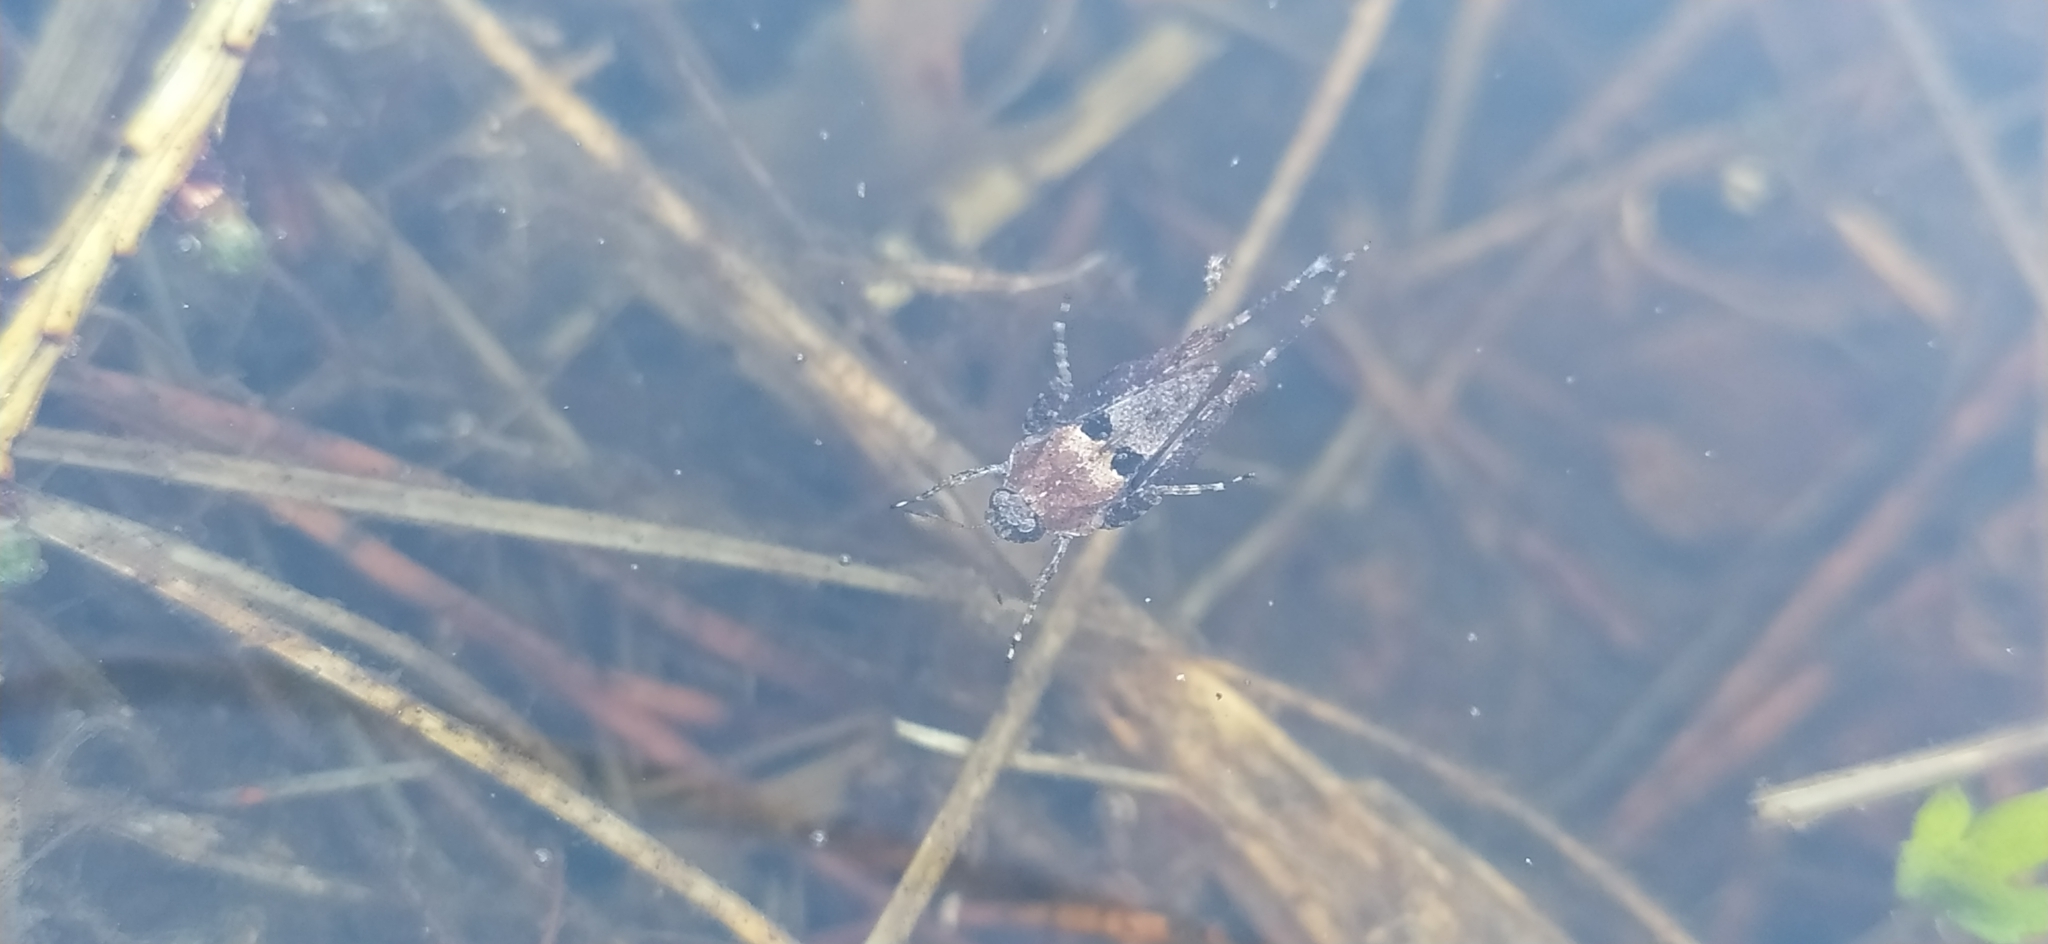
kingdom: Animalia
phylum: Arthropoda
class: Insecta
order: Orthoptera
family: Tetrigidae
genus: Tetrix
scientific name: Tetrix tenuicornis
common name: Long-horned groundhopper
